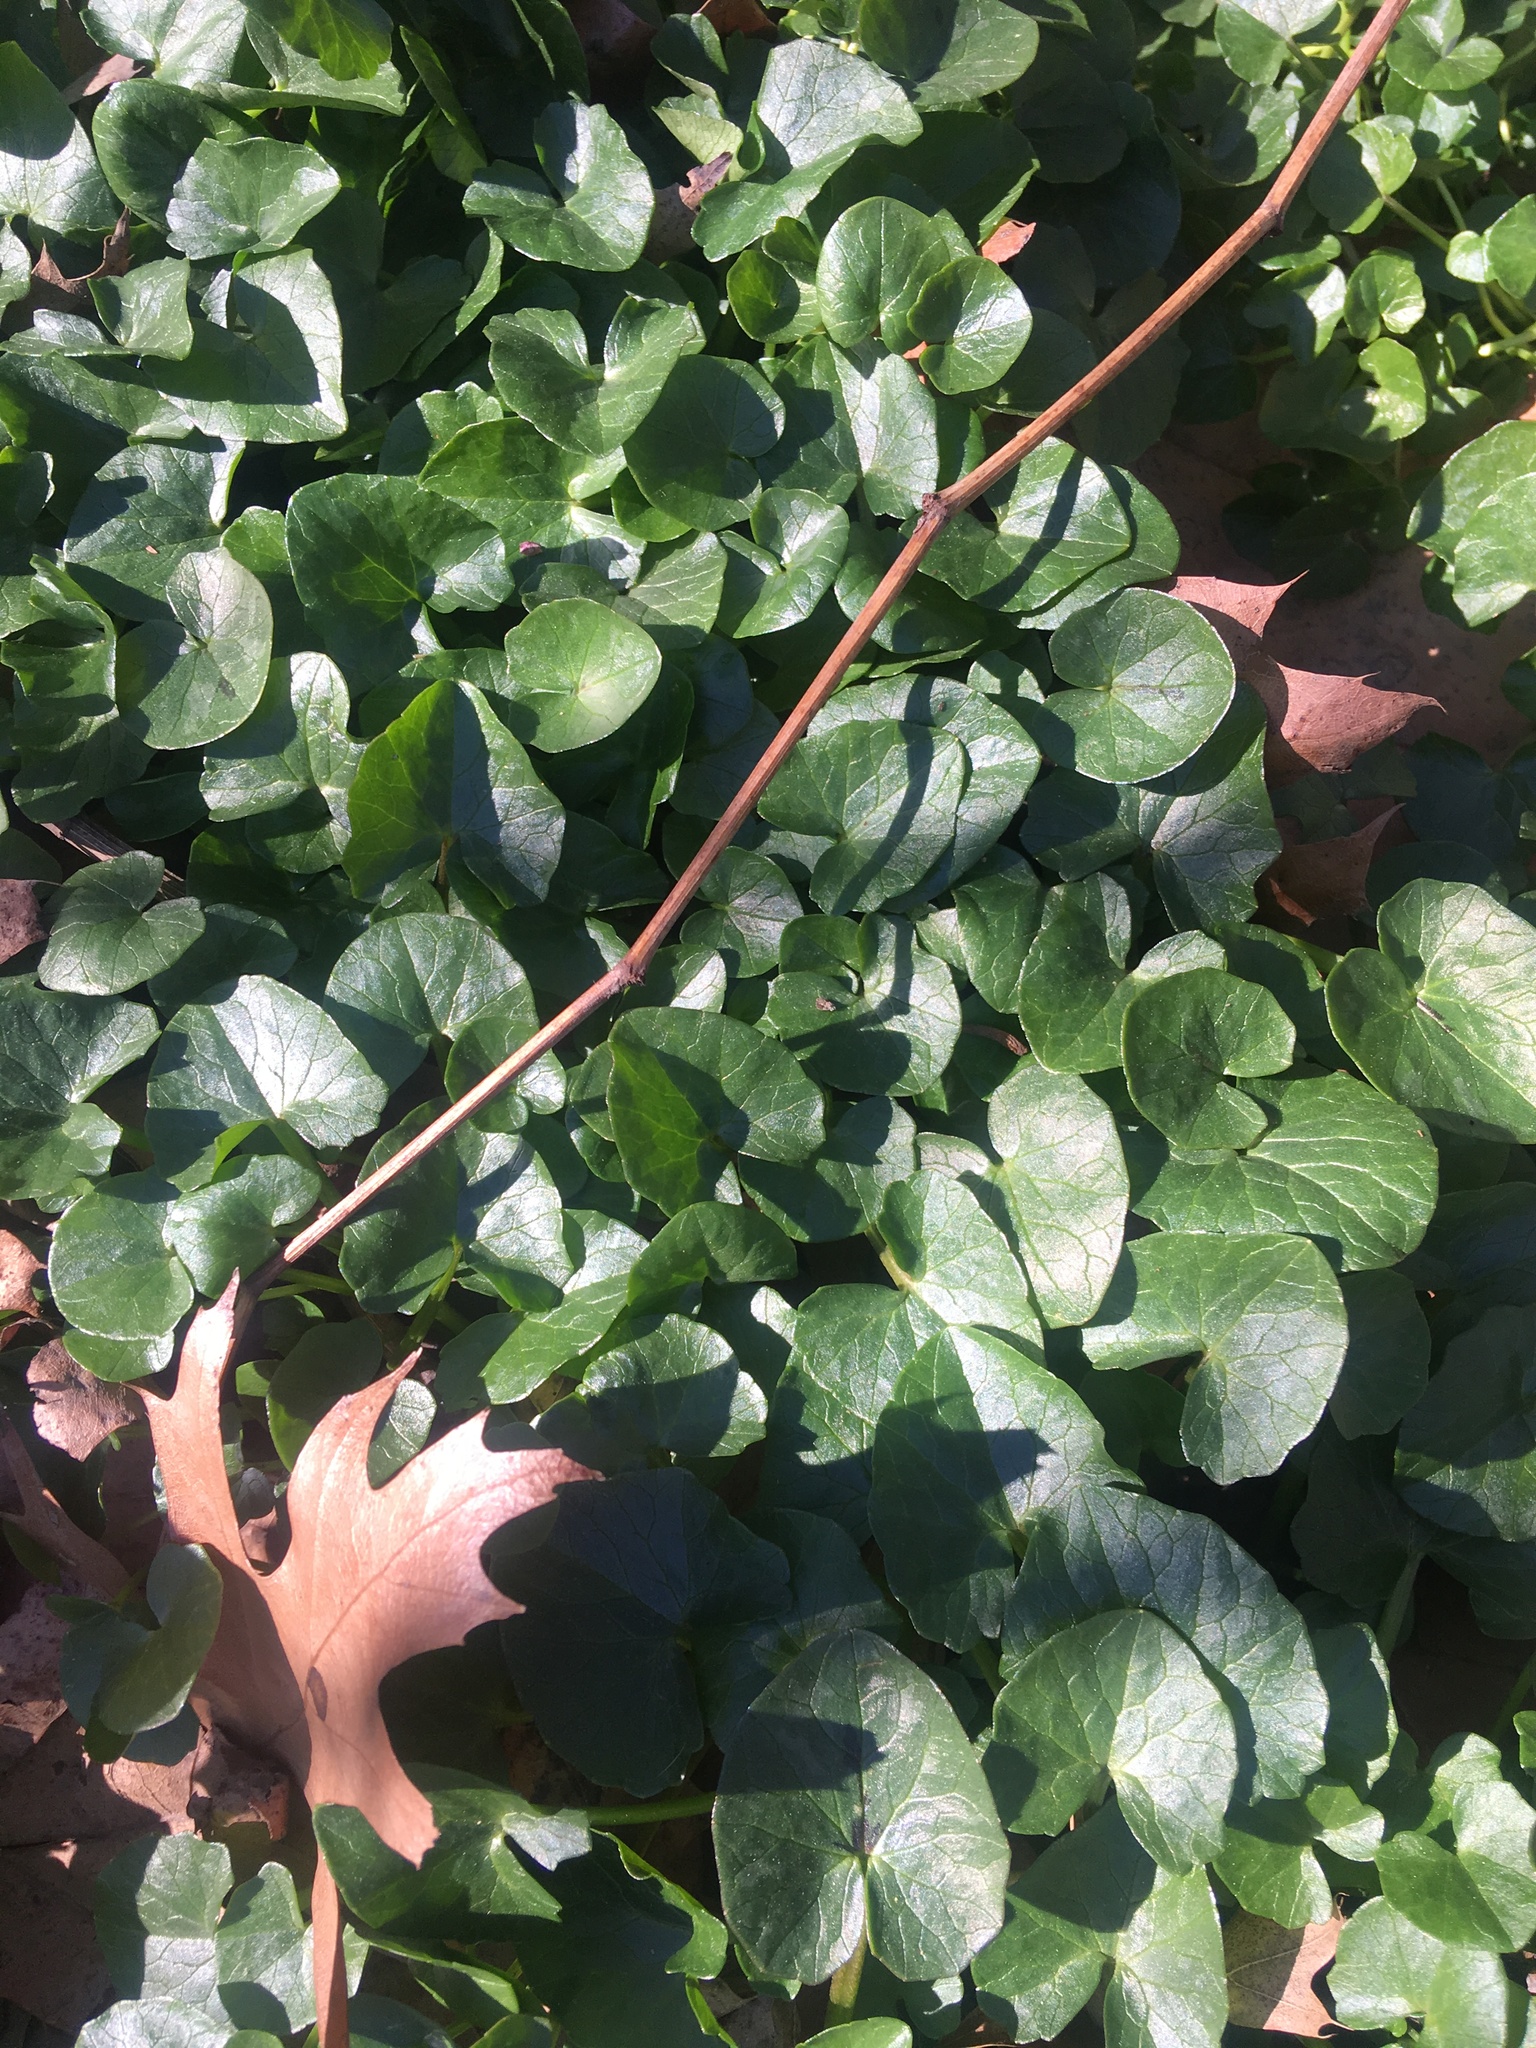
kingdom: Plantae
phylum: Tracheophyta
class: Magnoliopsida
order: Ranunculales
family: Ranunculaceae
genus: Ficaria
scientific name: Ficaria verna
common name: Lesser celandine
